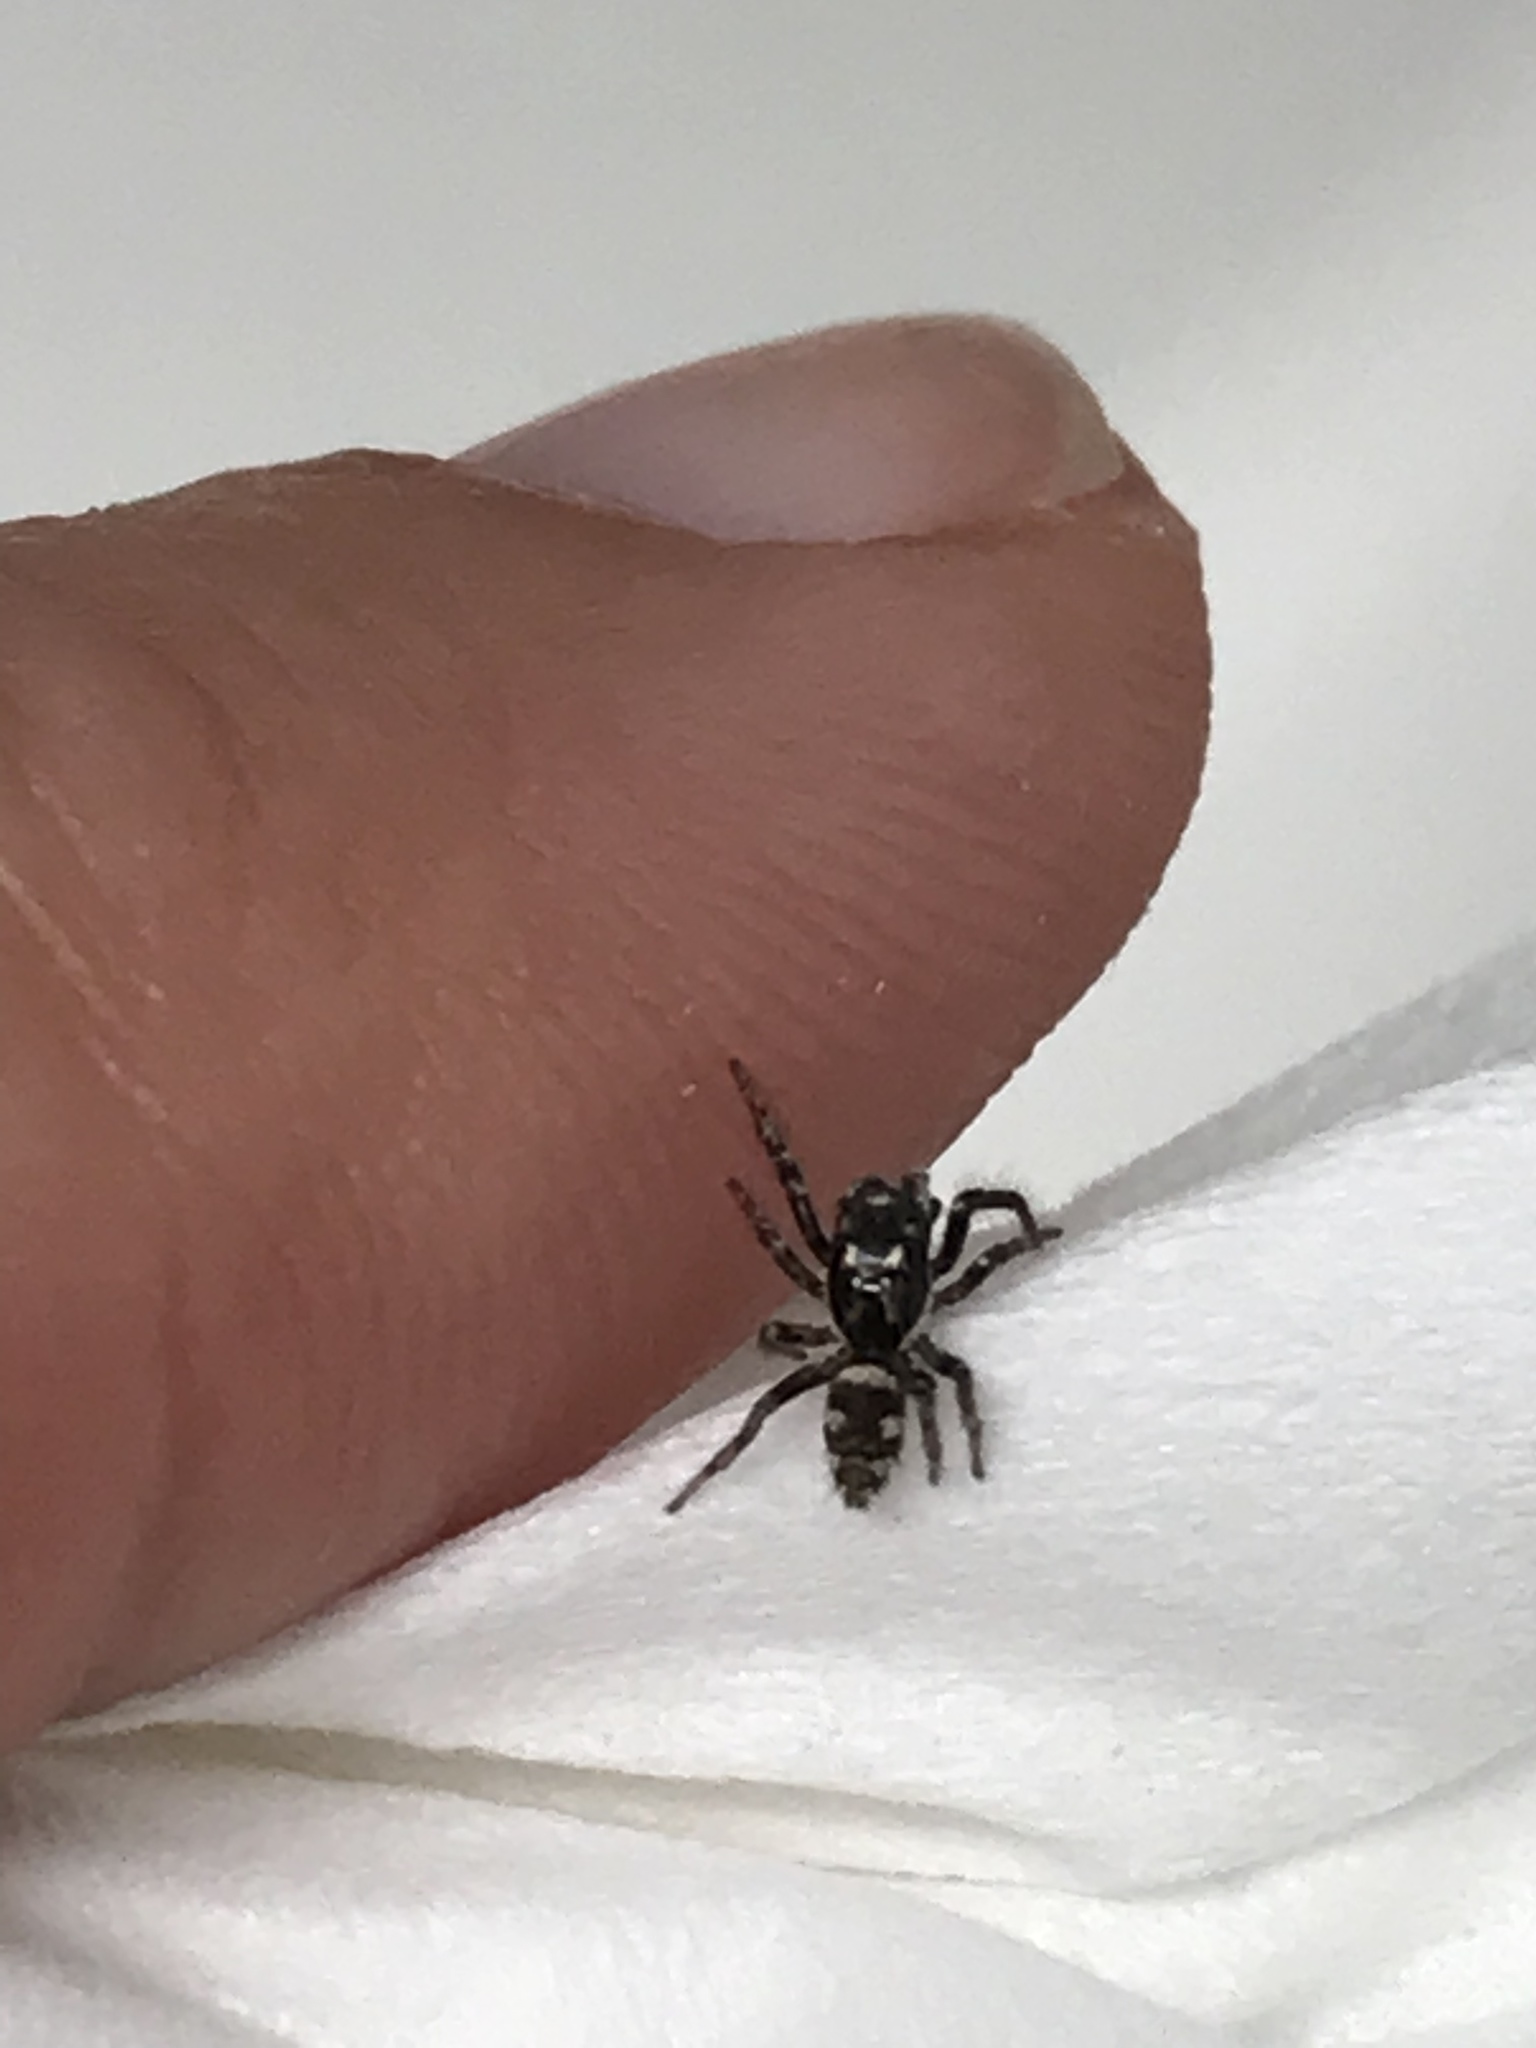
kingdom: Animalia
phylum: Arthropoda
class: Arachnida
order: Araneae
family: Salticidae
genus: Salticus
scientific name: Salticus scenicus
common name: Zebra jumper
